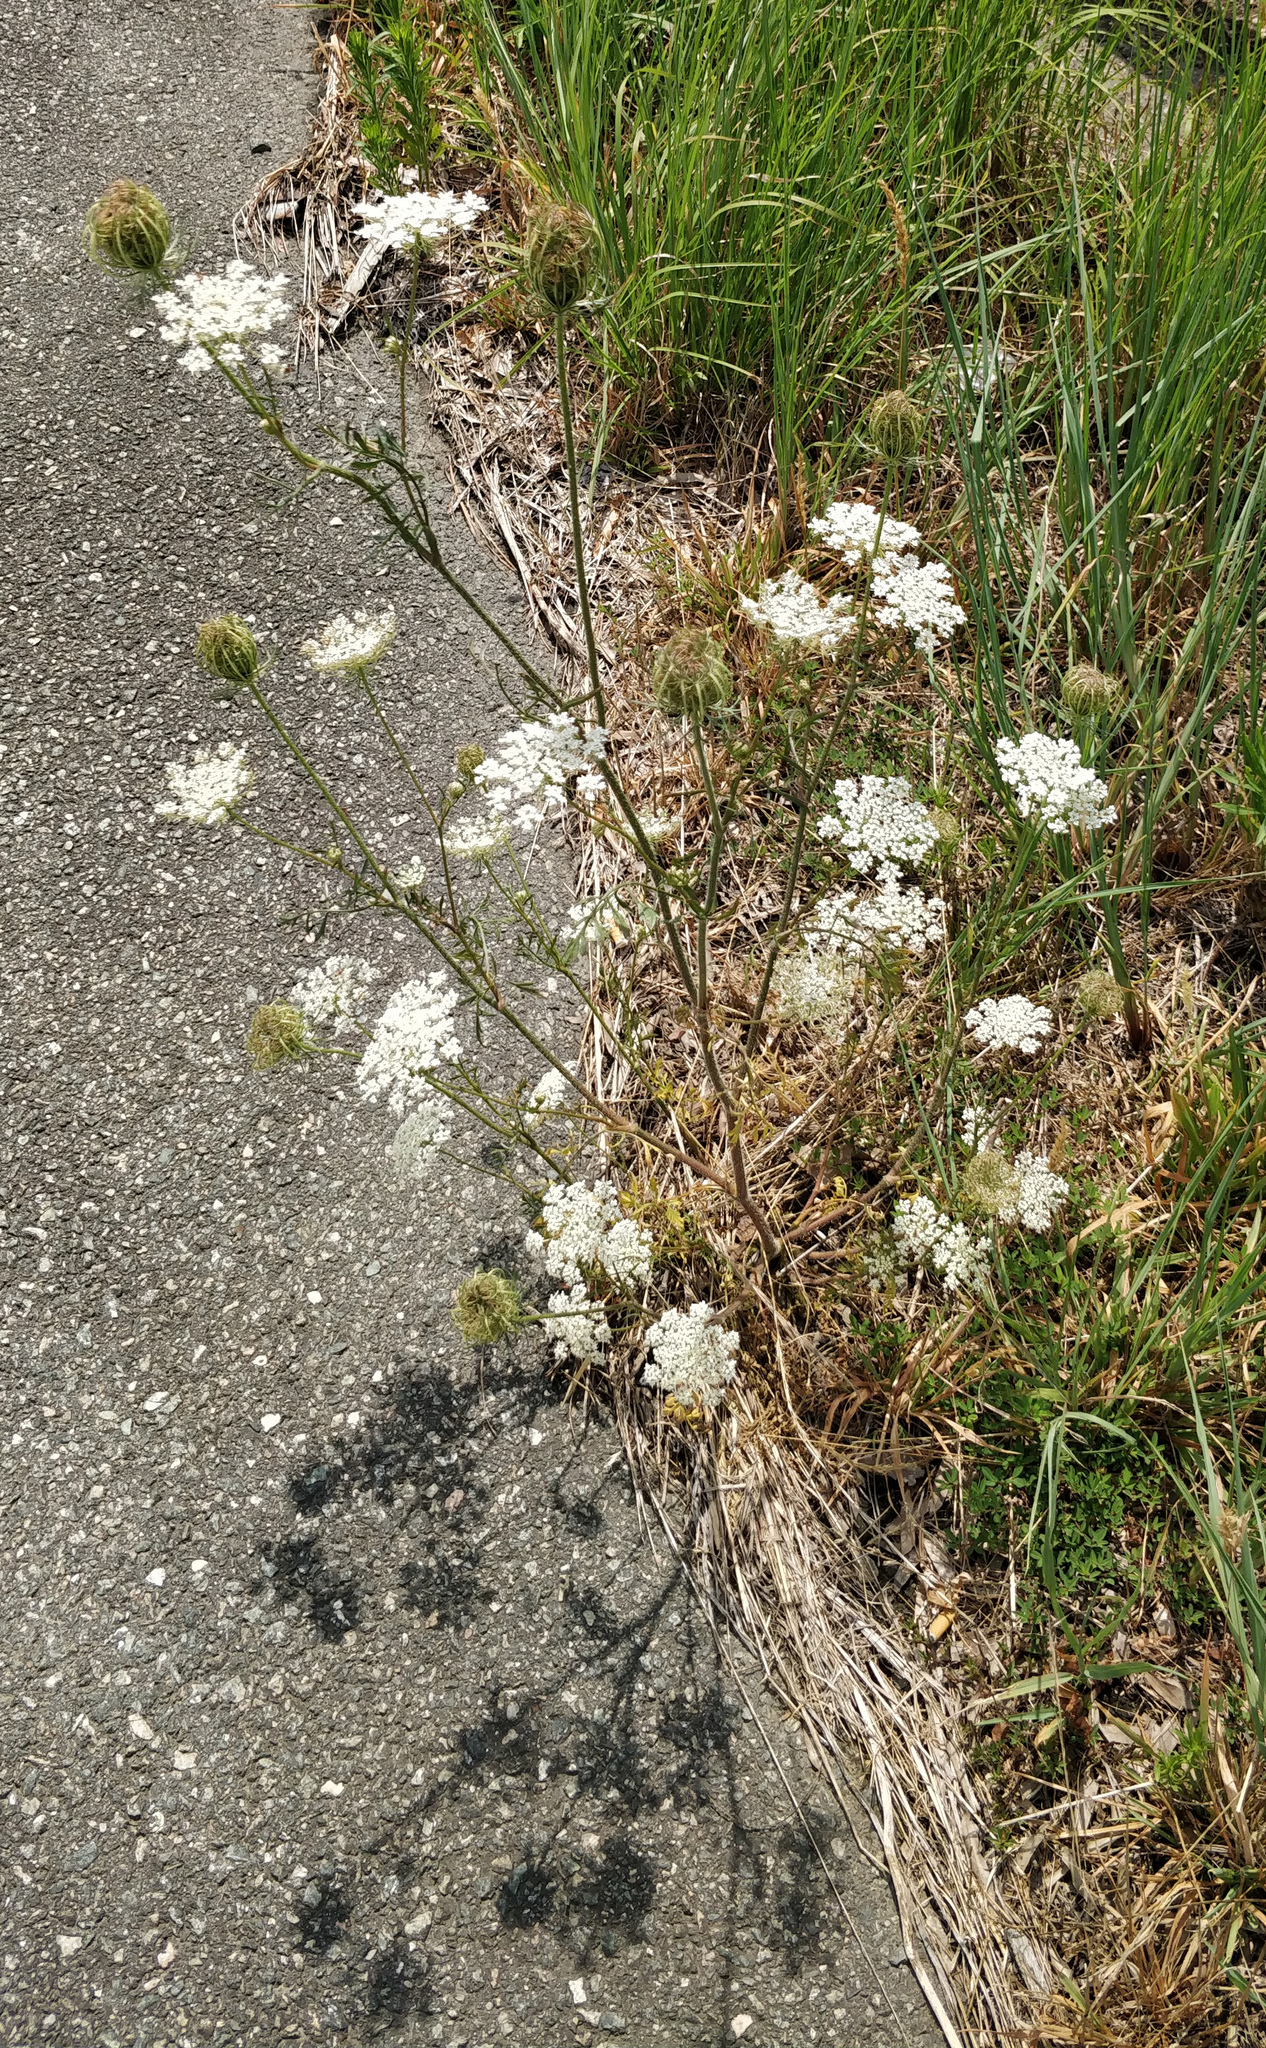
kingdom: Plantae
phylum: Tracheophyta
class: Magnoliopsida
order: Apiales
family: Apiaceae
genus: Daucus
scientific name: Daucus carota
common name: Wild carrot
